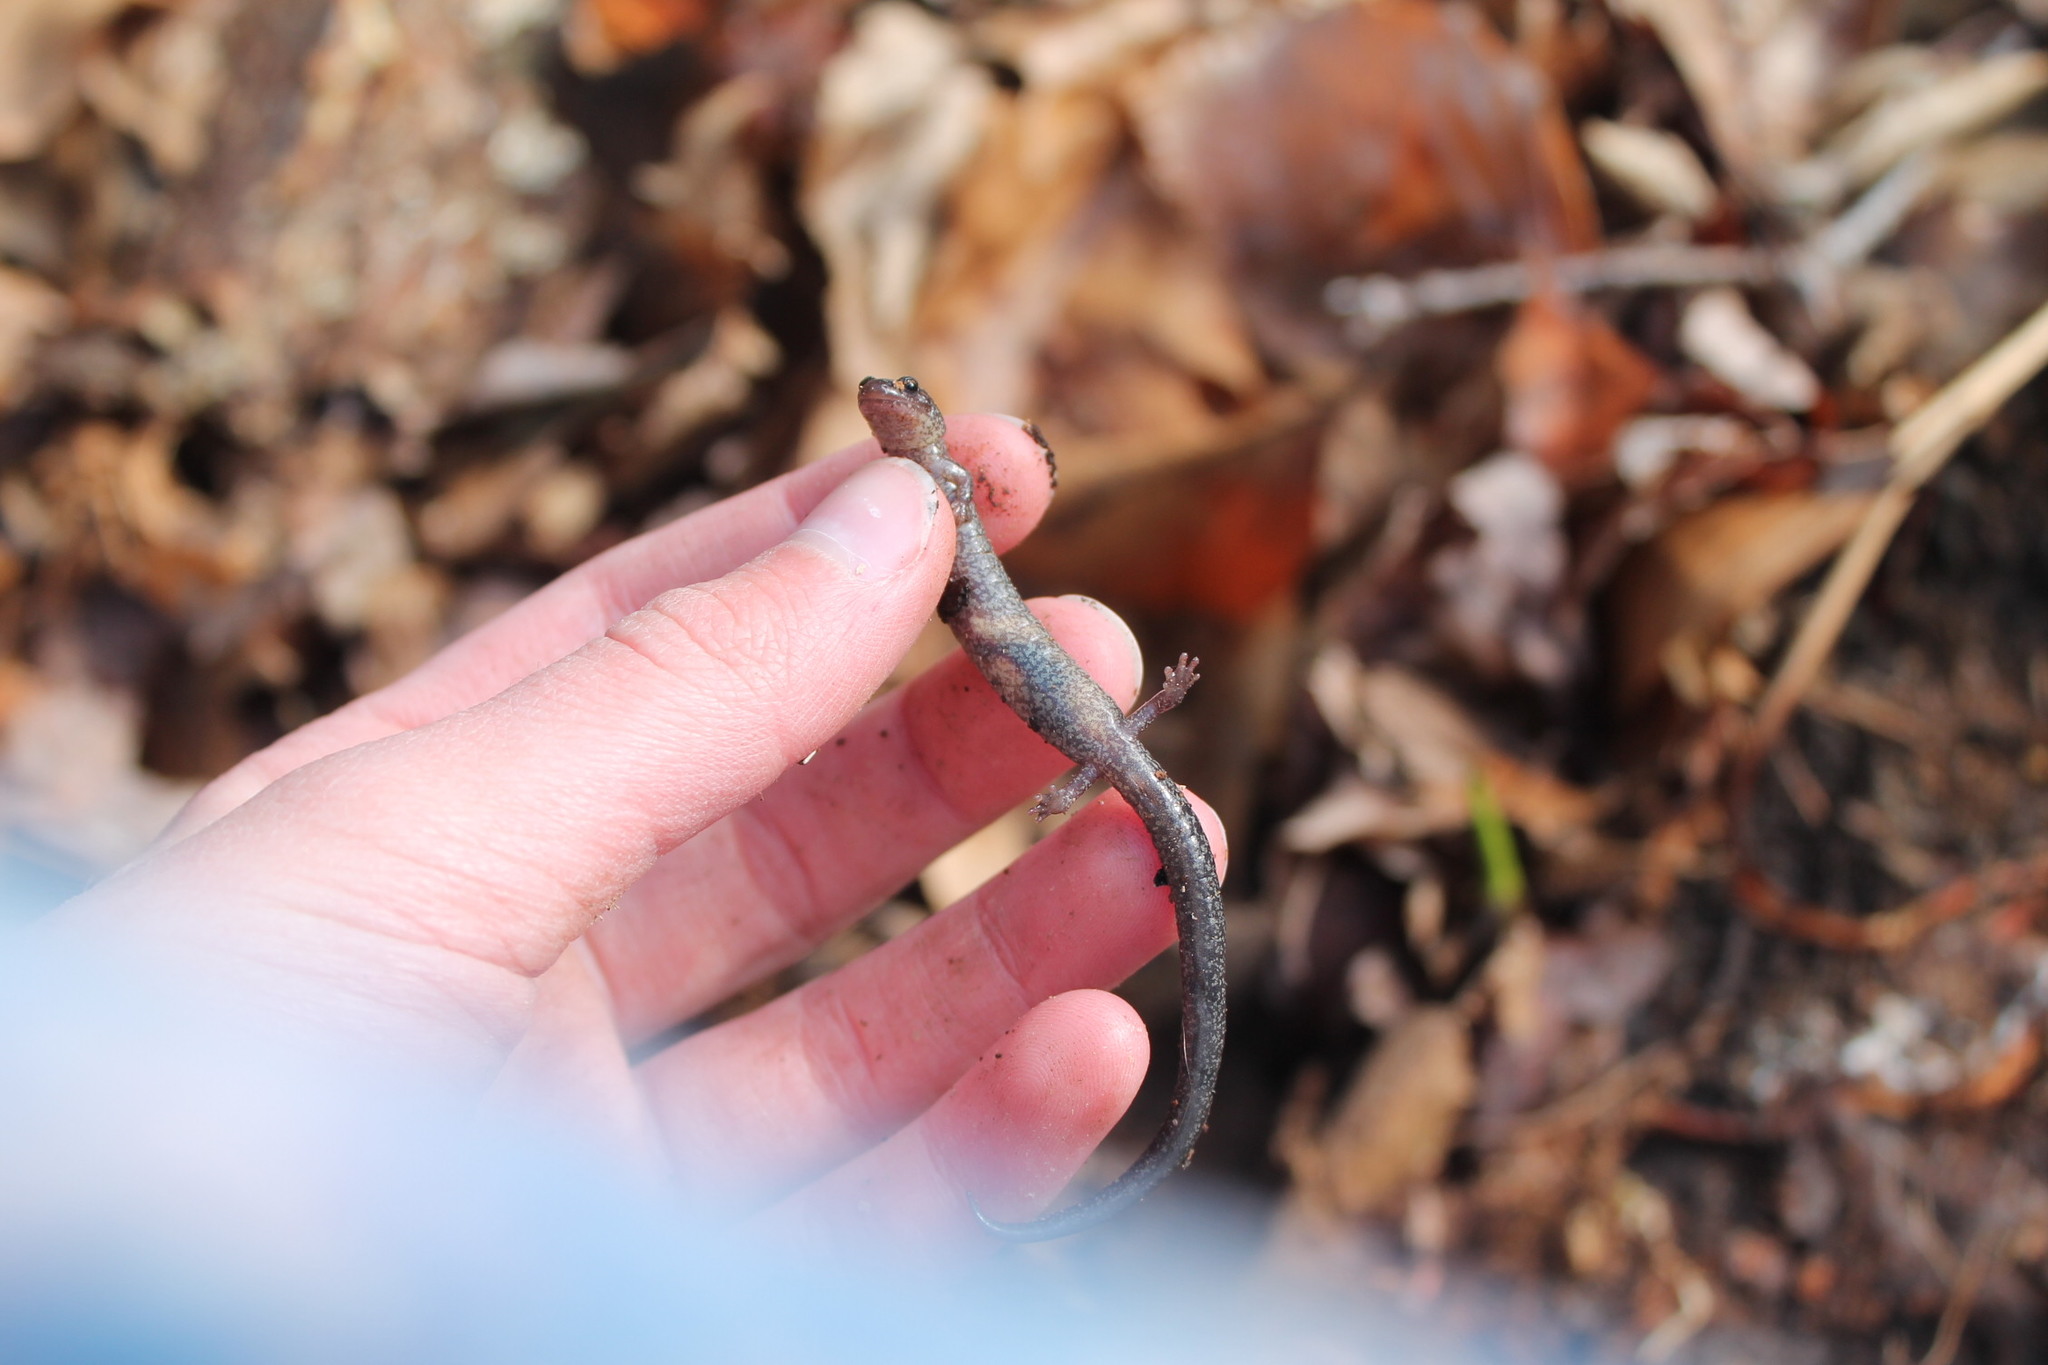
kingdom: Animalia
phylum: Chordata
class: Amphibia
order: Caudata
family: Plethodontidae
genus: Plethodon
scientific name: Plethodon cinereus
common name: Redback salamander
